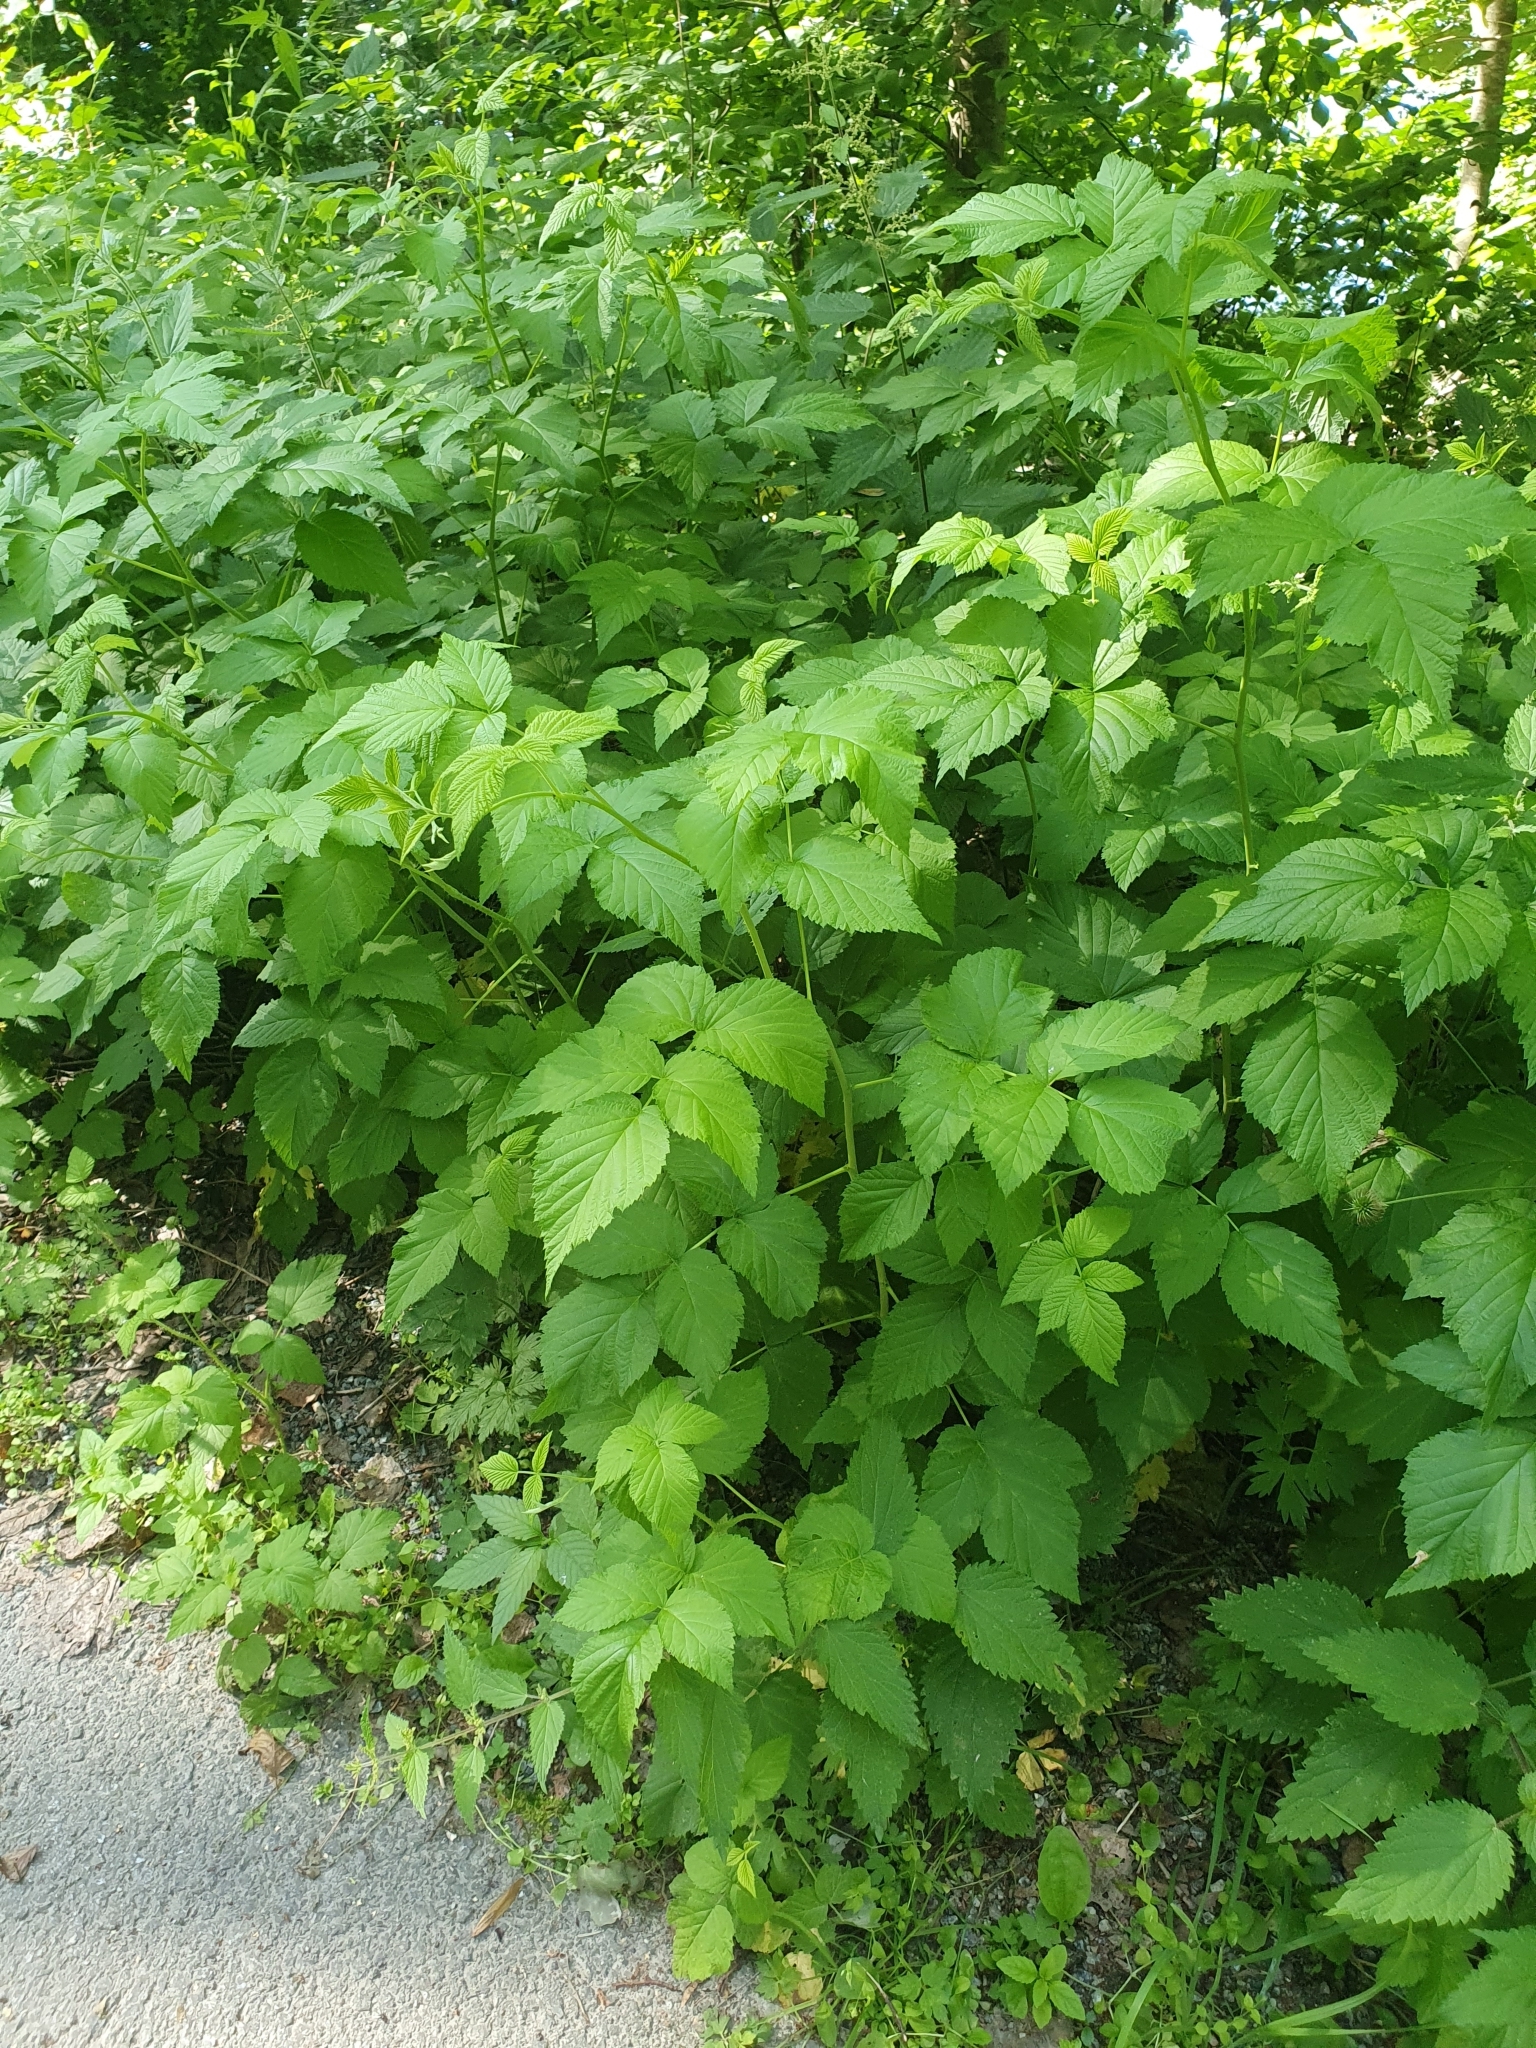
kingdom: Plantae
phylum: Tracheophyta
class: Magnoliopsida
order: Rosales
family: Rosaceae
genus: Rubus
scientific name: Rubus idaeus
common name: Raspberry
